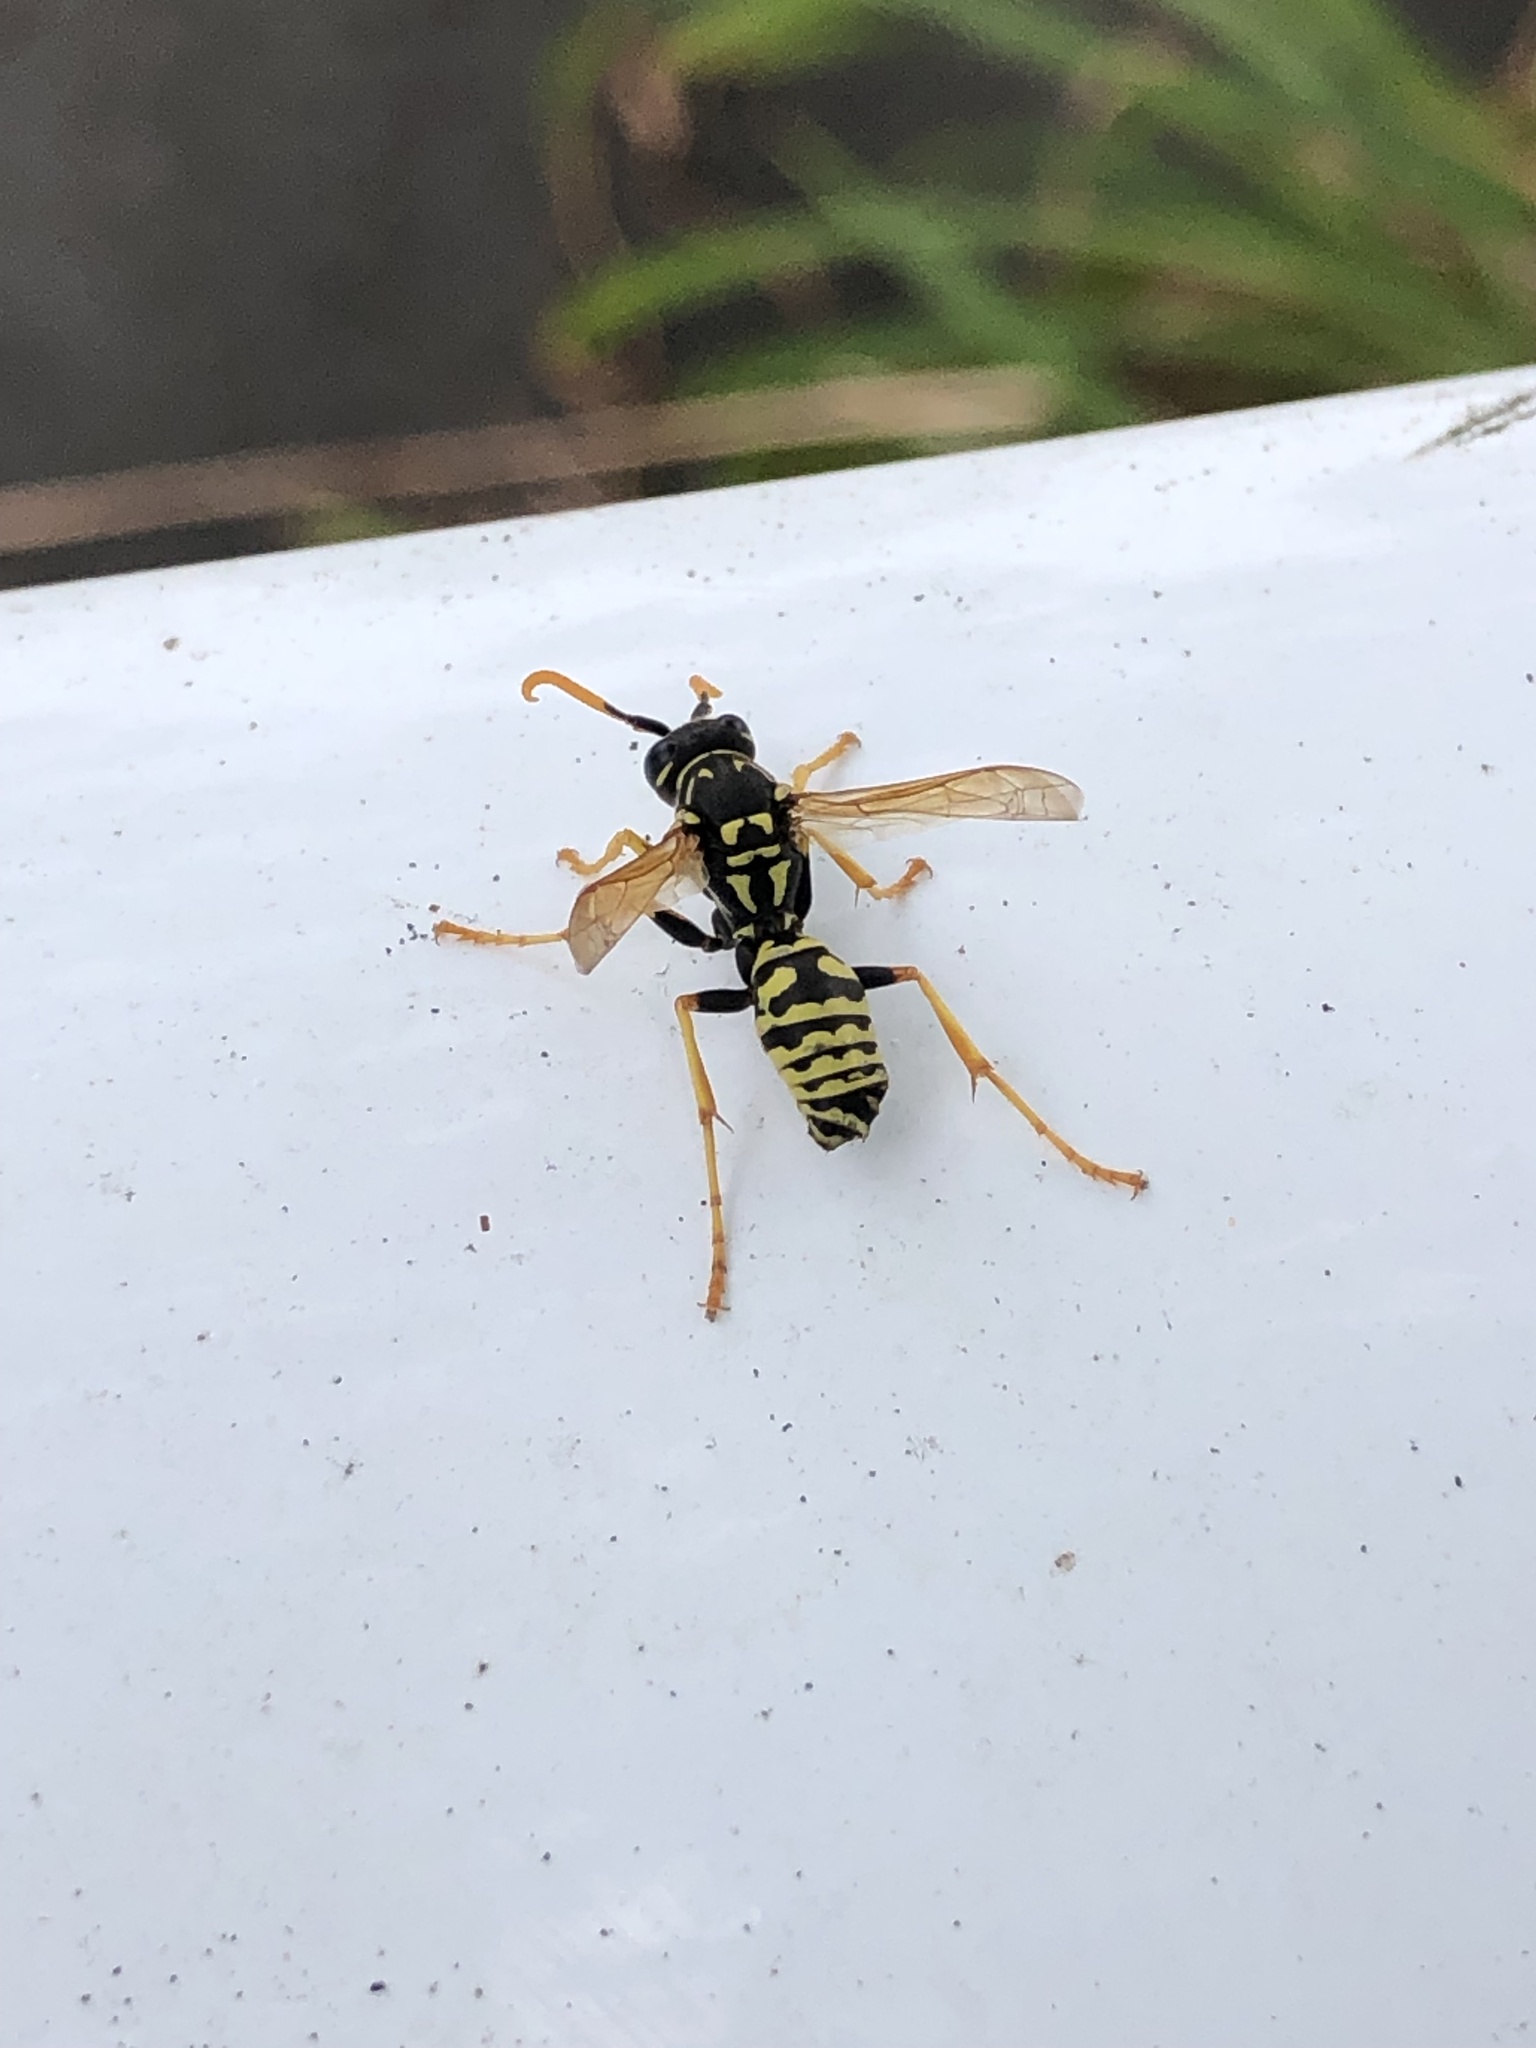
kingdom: Animalia
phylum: Arthropoda
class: Insecta
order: Hymenoptera
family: Eumenidae
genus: Polistes
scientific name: Polistes dominula
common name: Paper wasp
